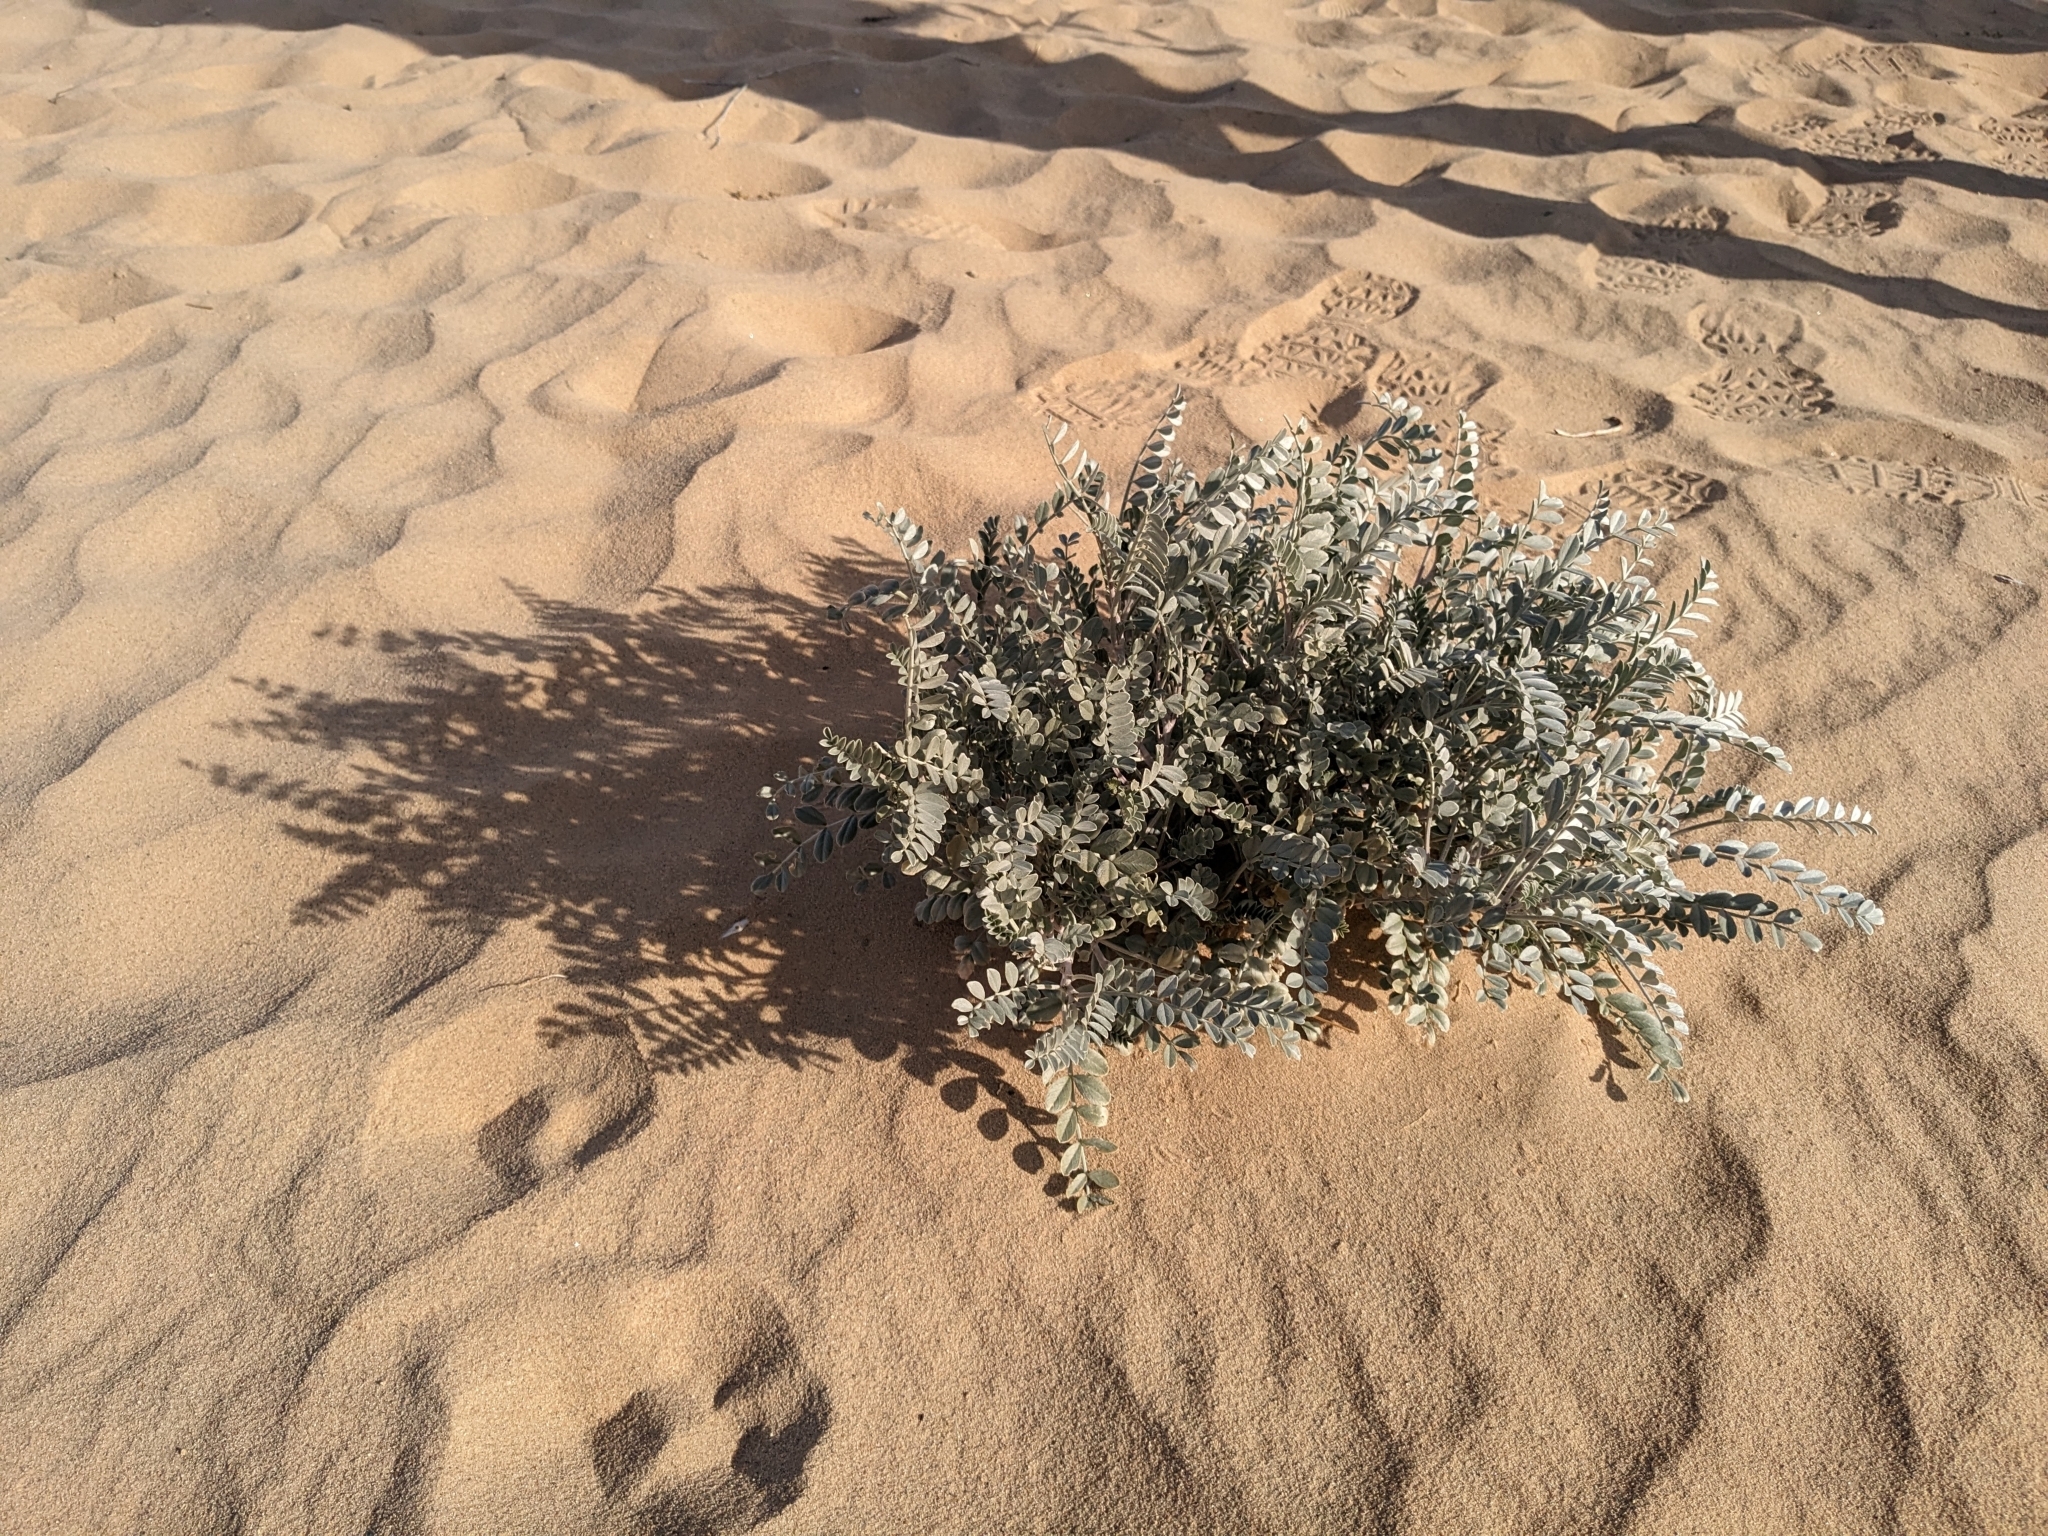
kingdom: Plantae
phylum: Tracheophyta
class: Magnoliopsida
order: Fabales
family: Fabaceae
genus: Astragalus
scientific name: Astragalus lentiginosus
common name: Freckled milkvetch
